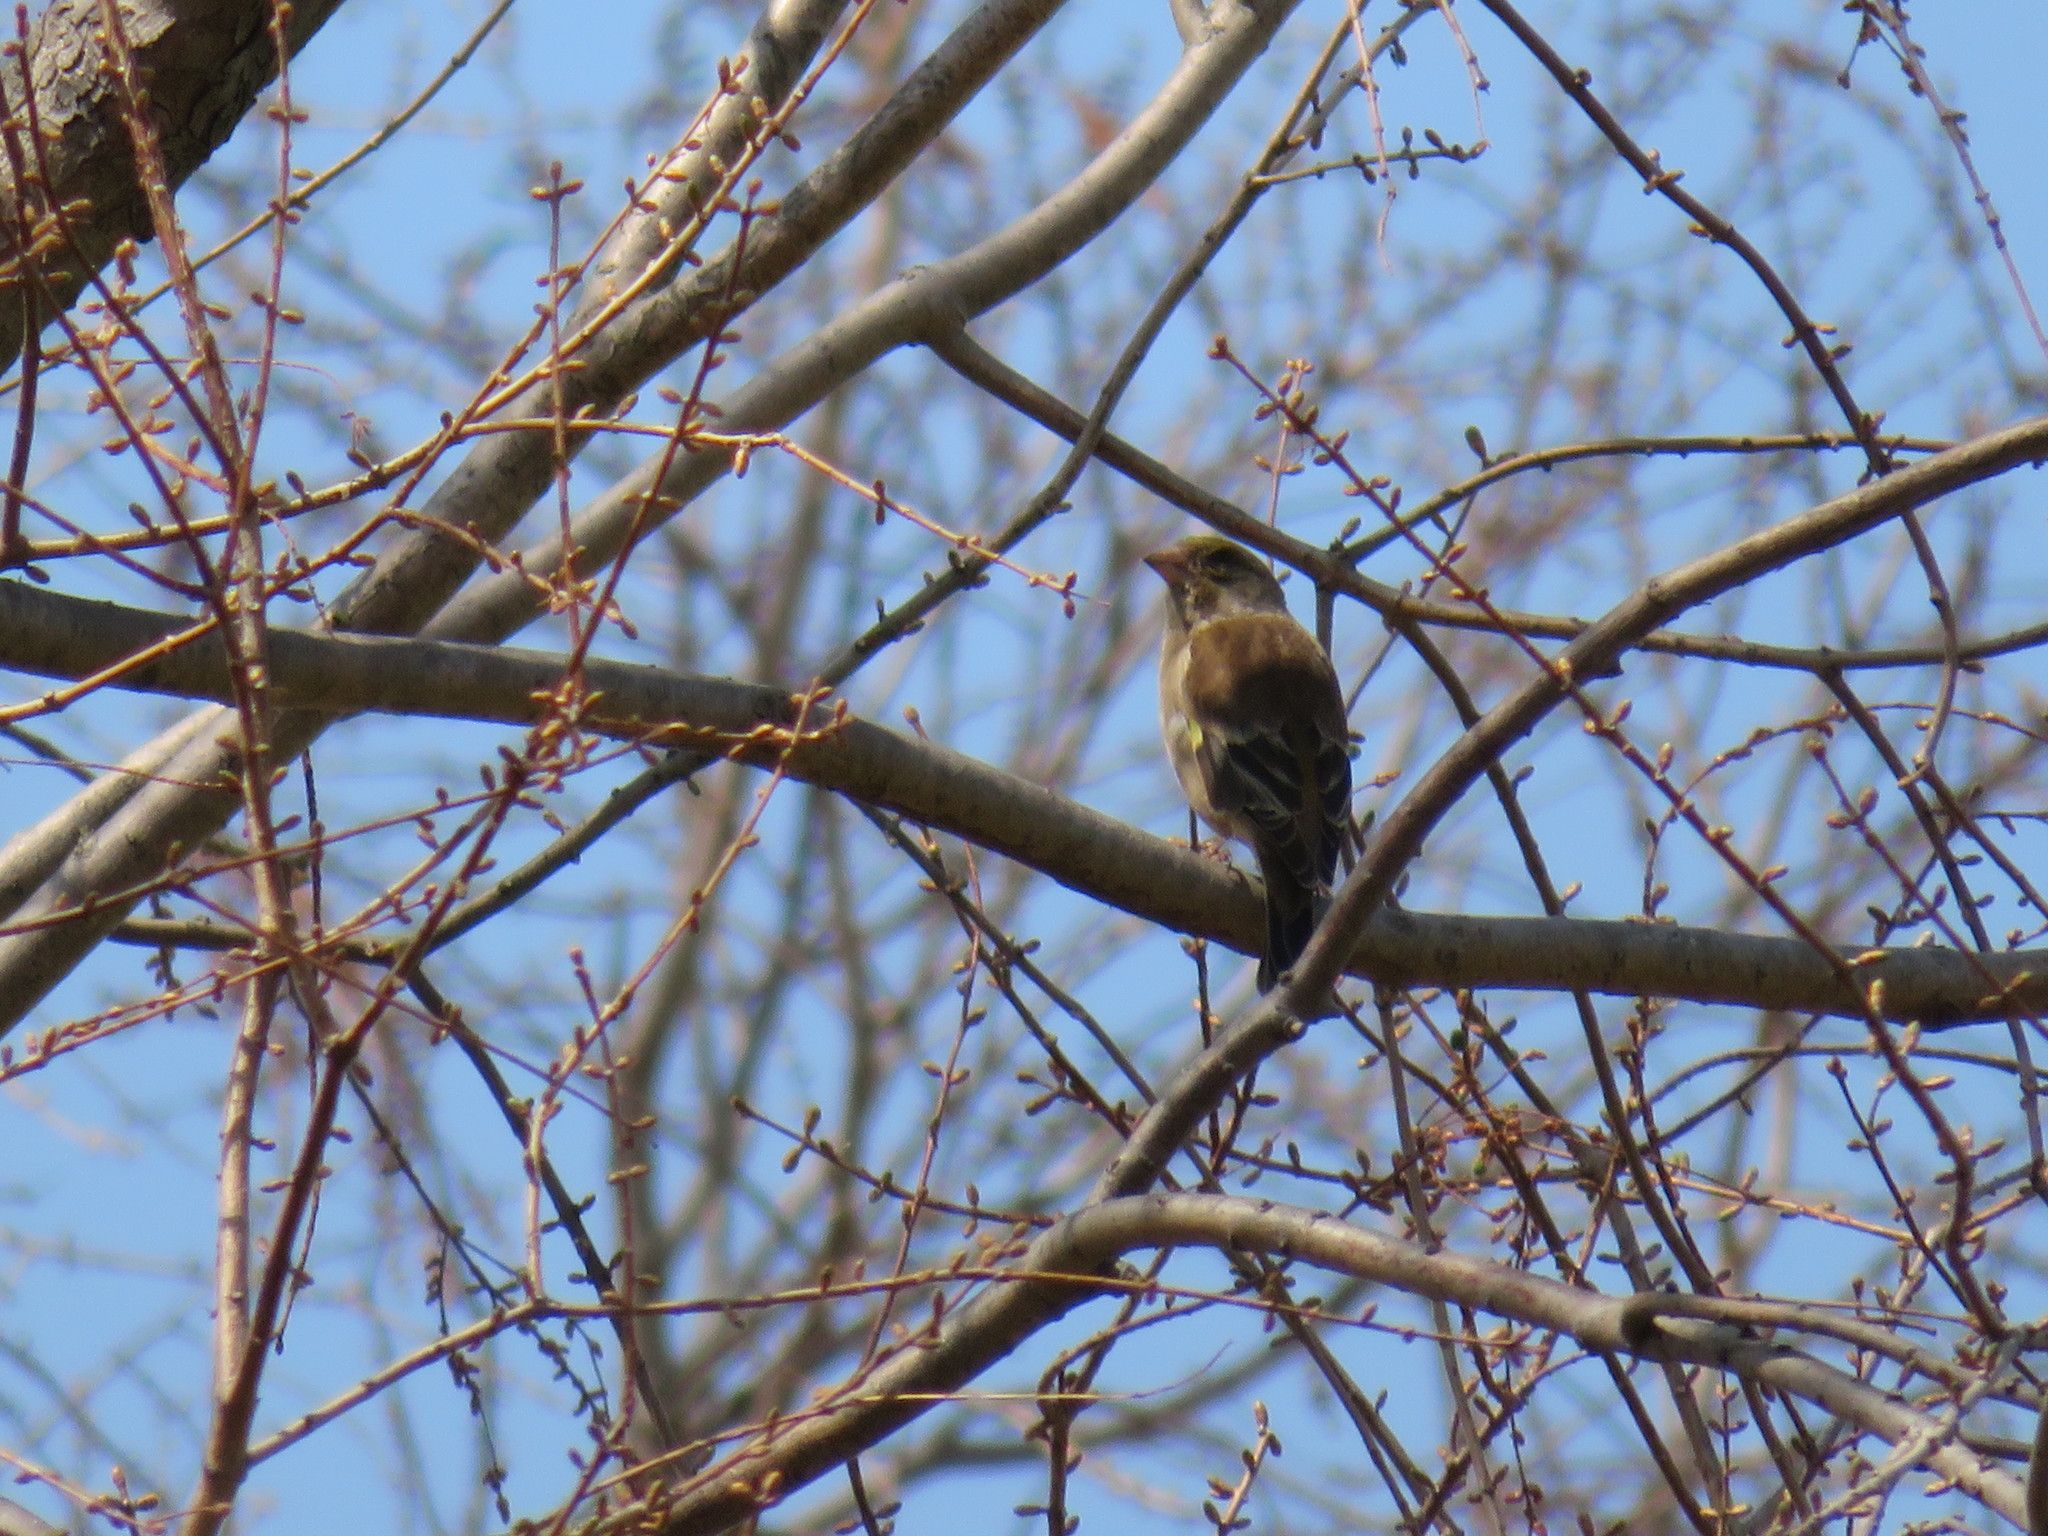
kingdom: Plantae
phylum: Tracheophyta
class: Liliopsida
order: Poales
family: Poaceae
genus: Chloris
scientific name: Chloris sinica
